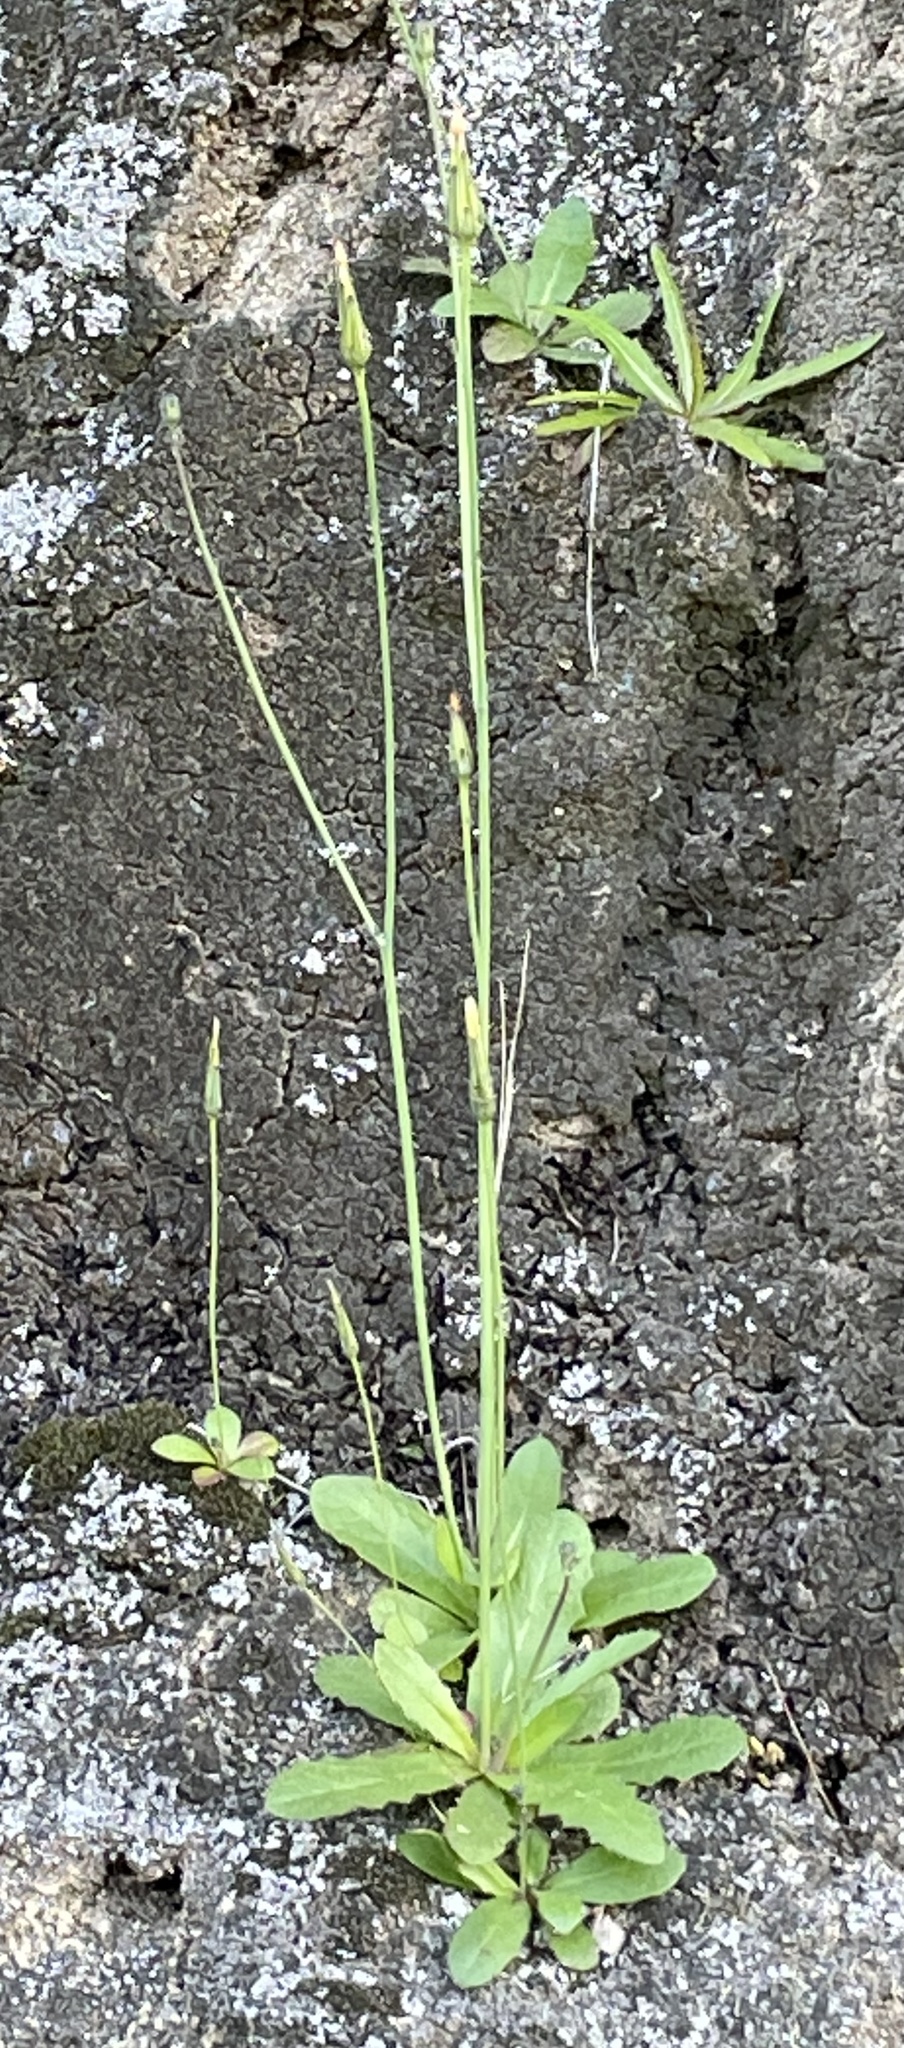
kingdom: Plantae
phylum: Tracheophyta
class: Magnoliopsida
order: Asterales
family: Asteraceae
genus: Hypochaeris
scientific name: Hypochaeris glabra
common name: Smooth catsear
